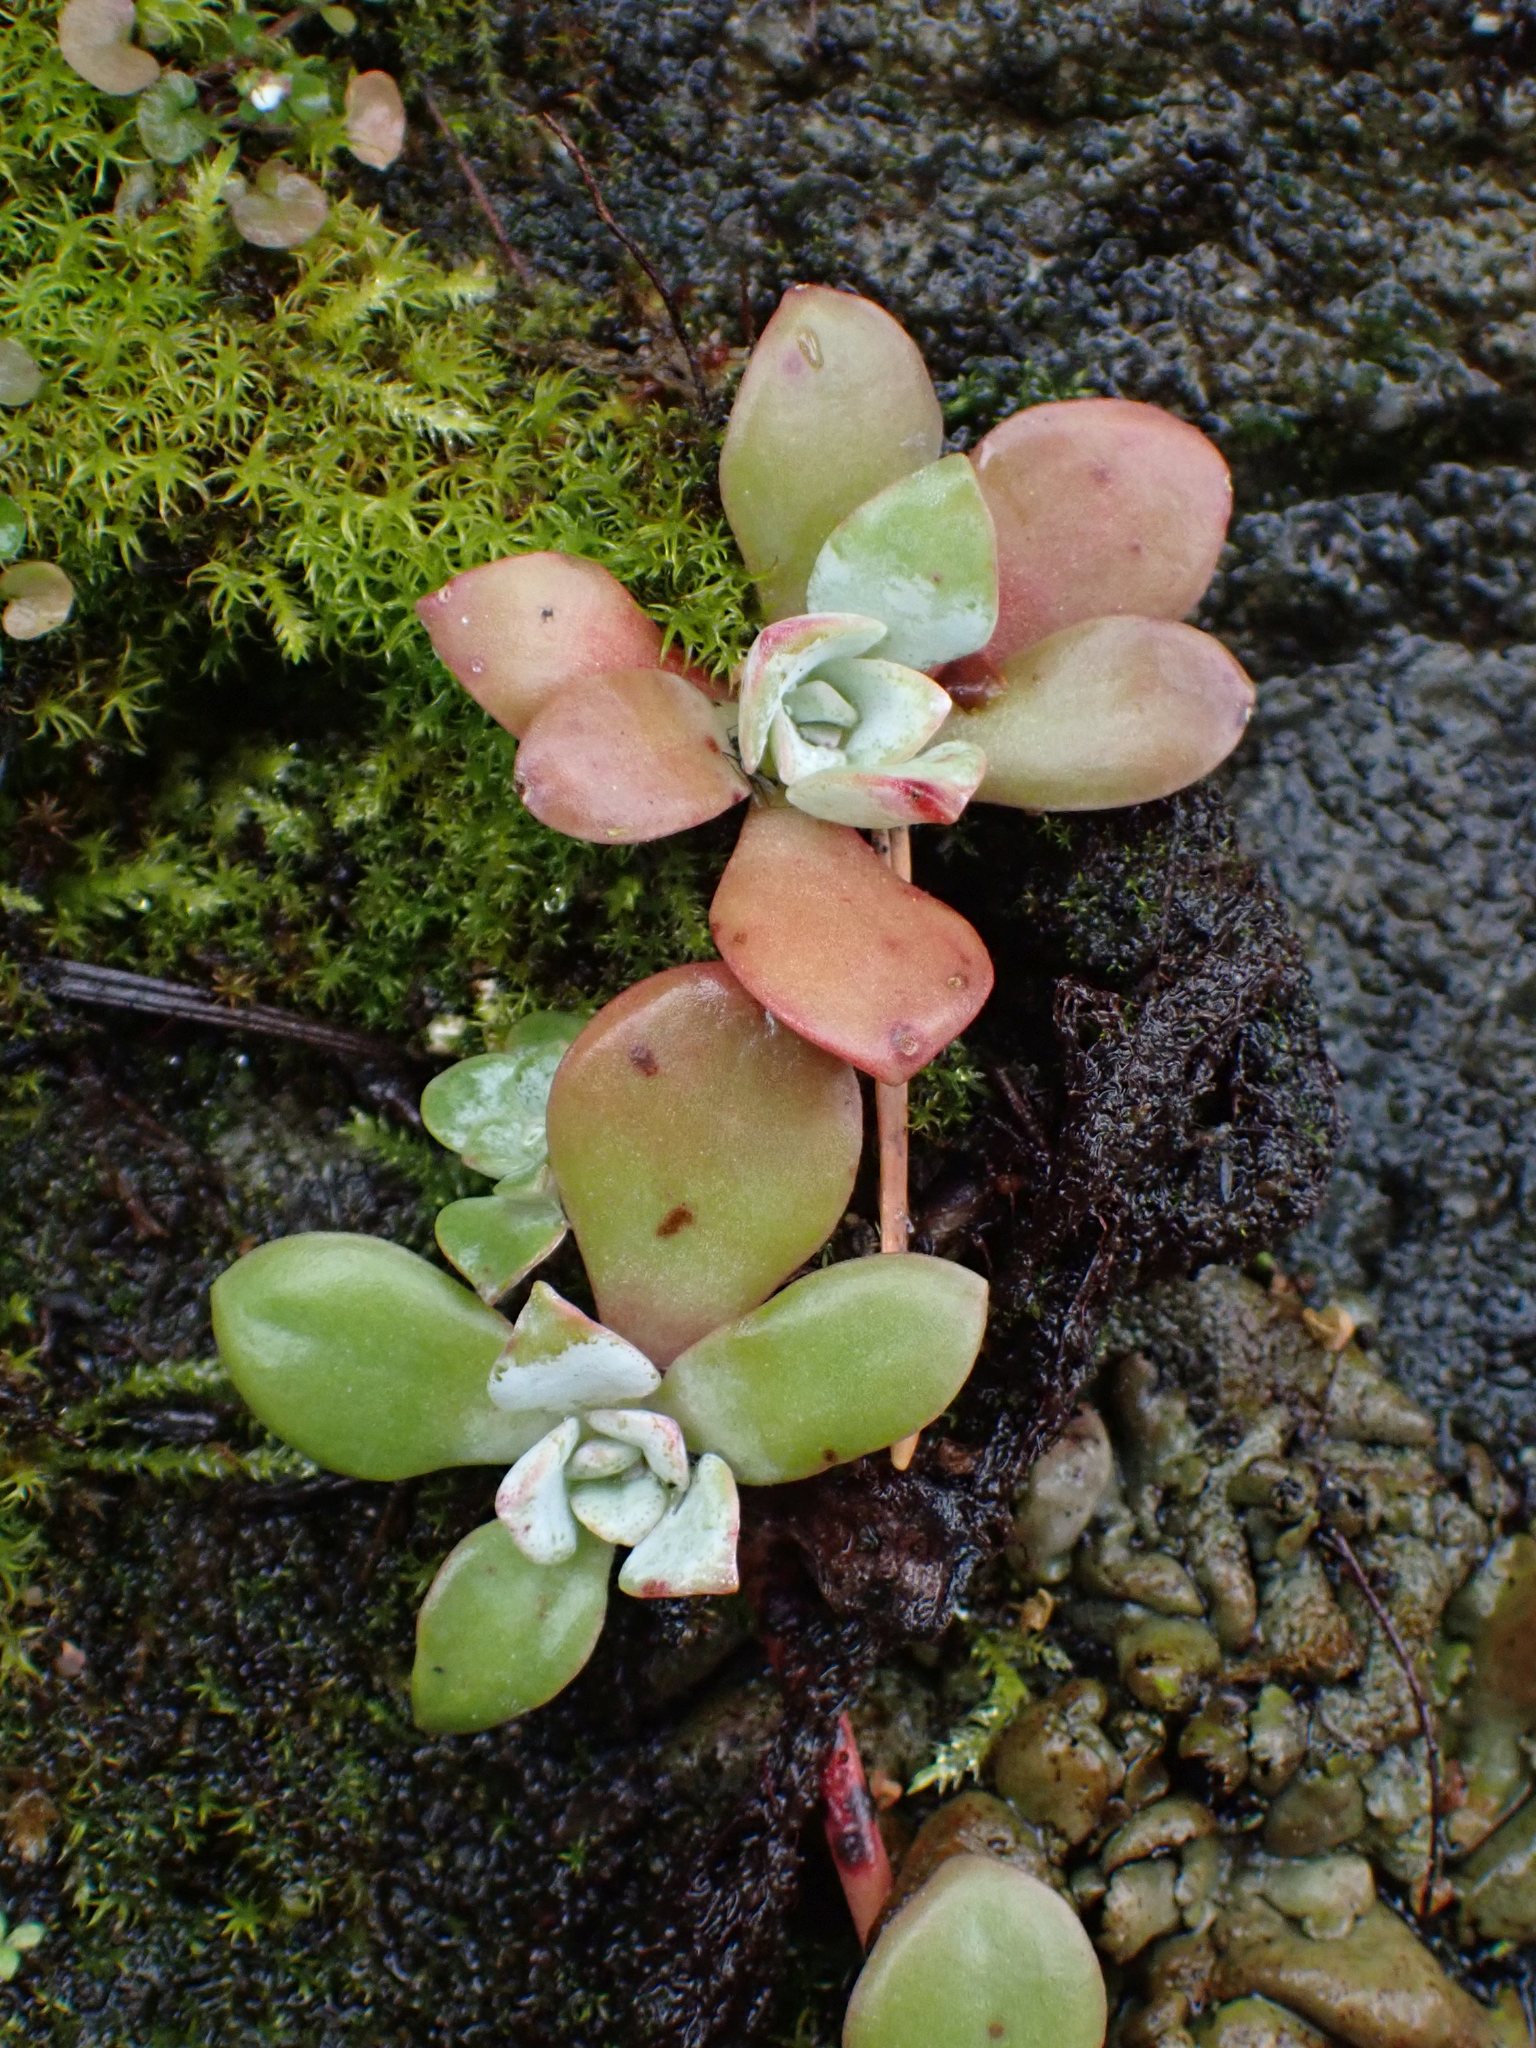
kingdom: Plantae
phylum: Tracheophyta
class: Magnoliopsida
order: Saxifragales
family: Crassulaceae
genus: Sedum
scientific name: Sedum spathulifolium
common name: Colorado stonecrop
